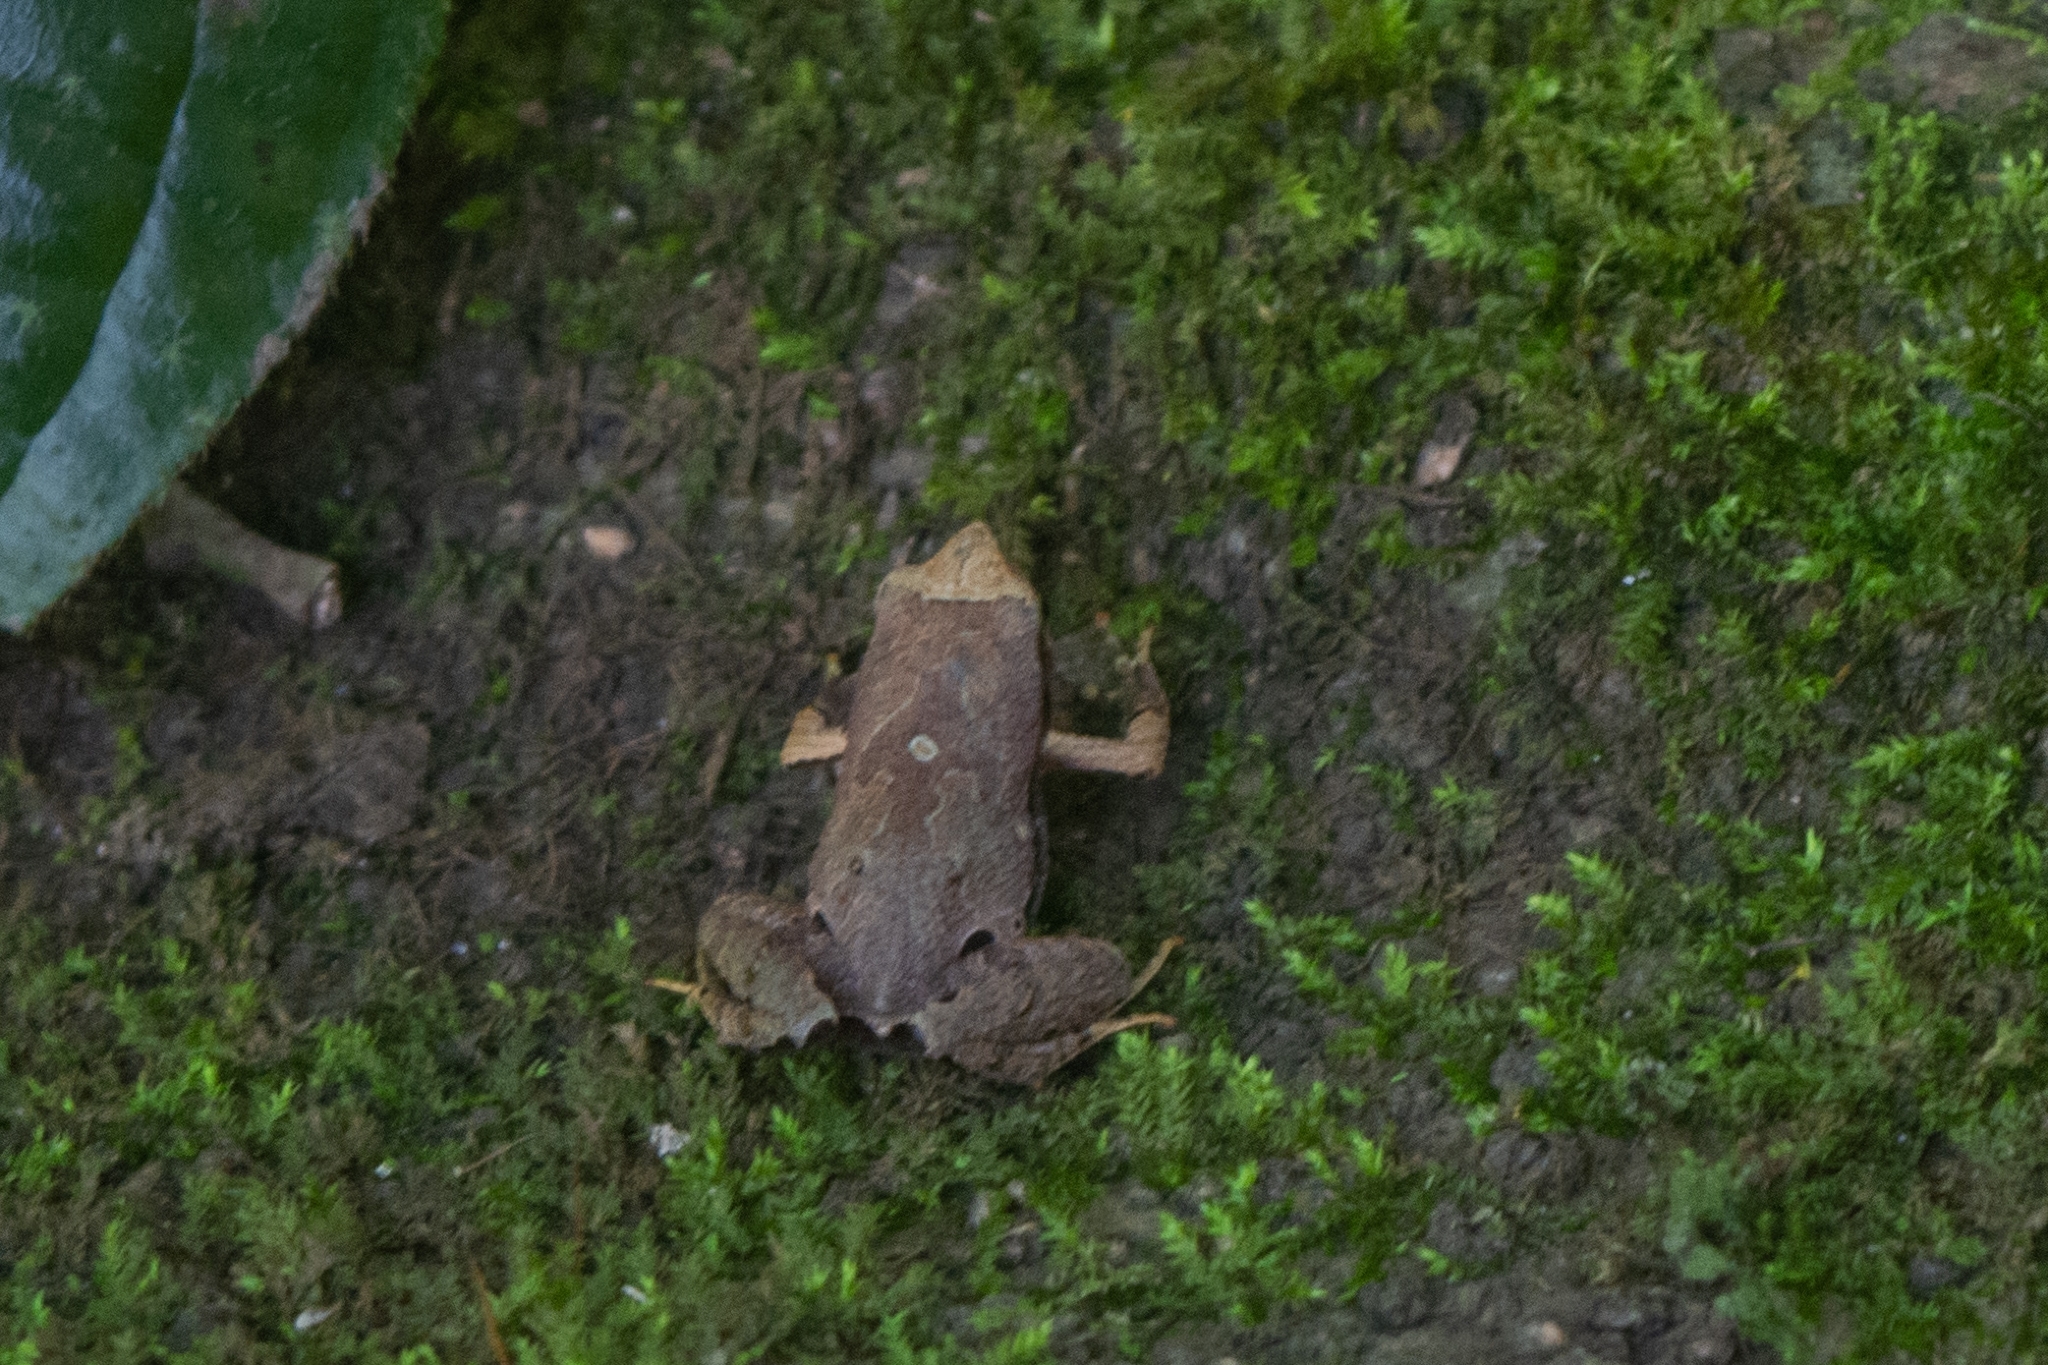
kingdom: Animalia
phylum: Chordata
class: Amphibia
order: Anura
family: Leptodactylidae
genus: Physalaemus
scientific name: Physalaemus nanus
